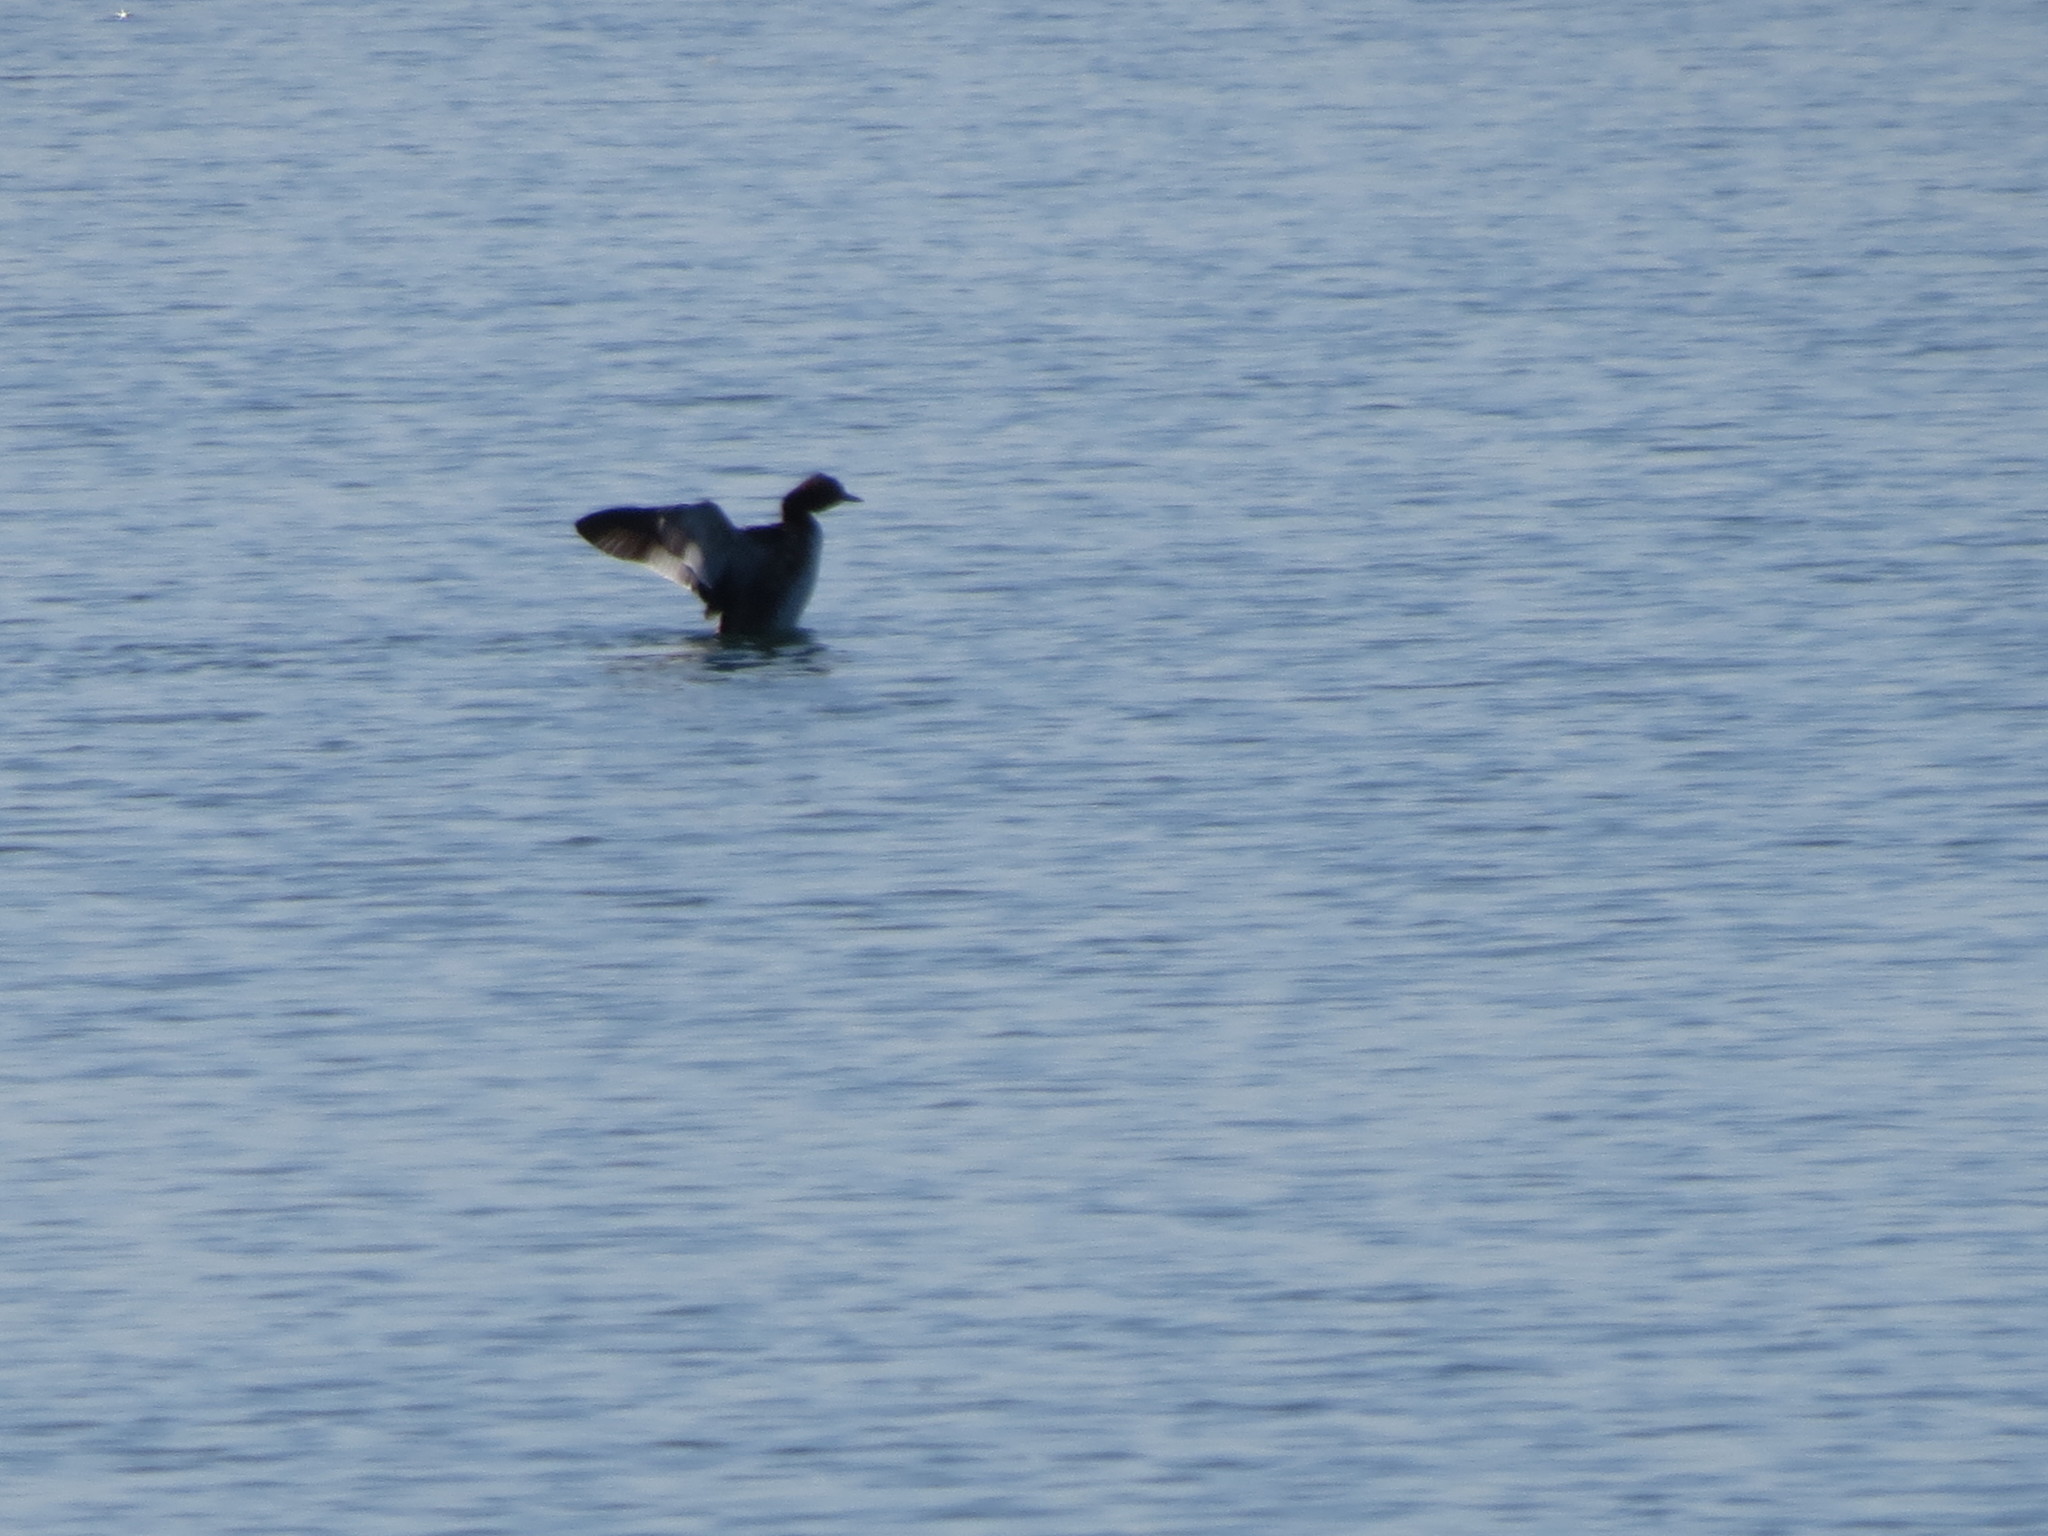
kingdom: Animalia
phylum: Chordata
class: Aves
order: Podicipediformes
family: Podicipedidae
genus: Podiceps
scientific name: Podiceps auritus
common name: Horned grebe
